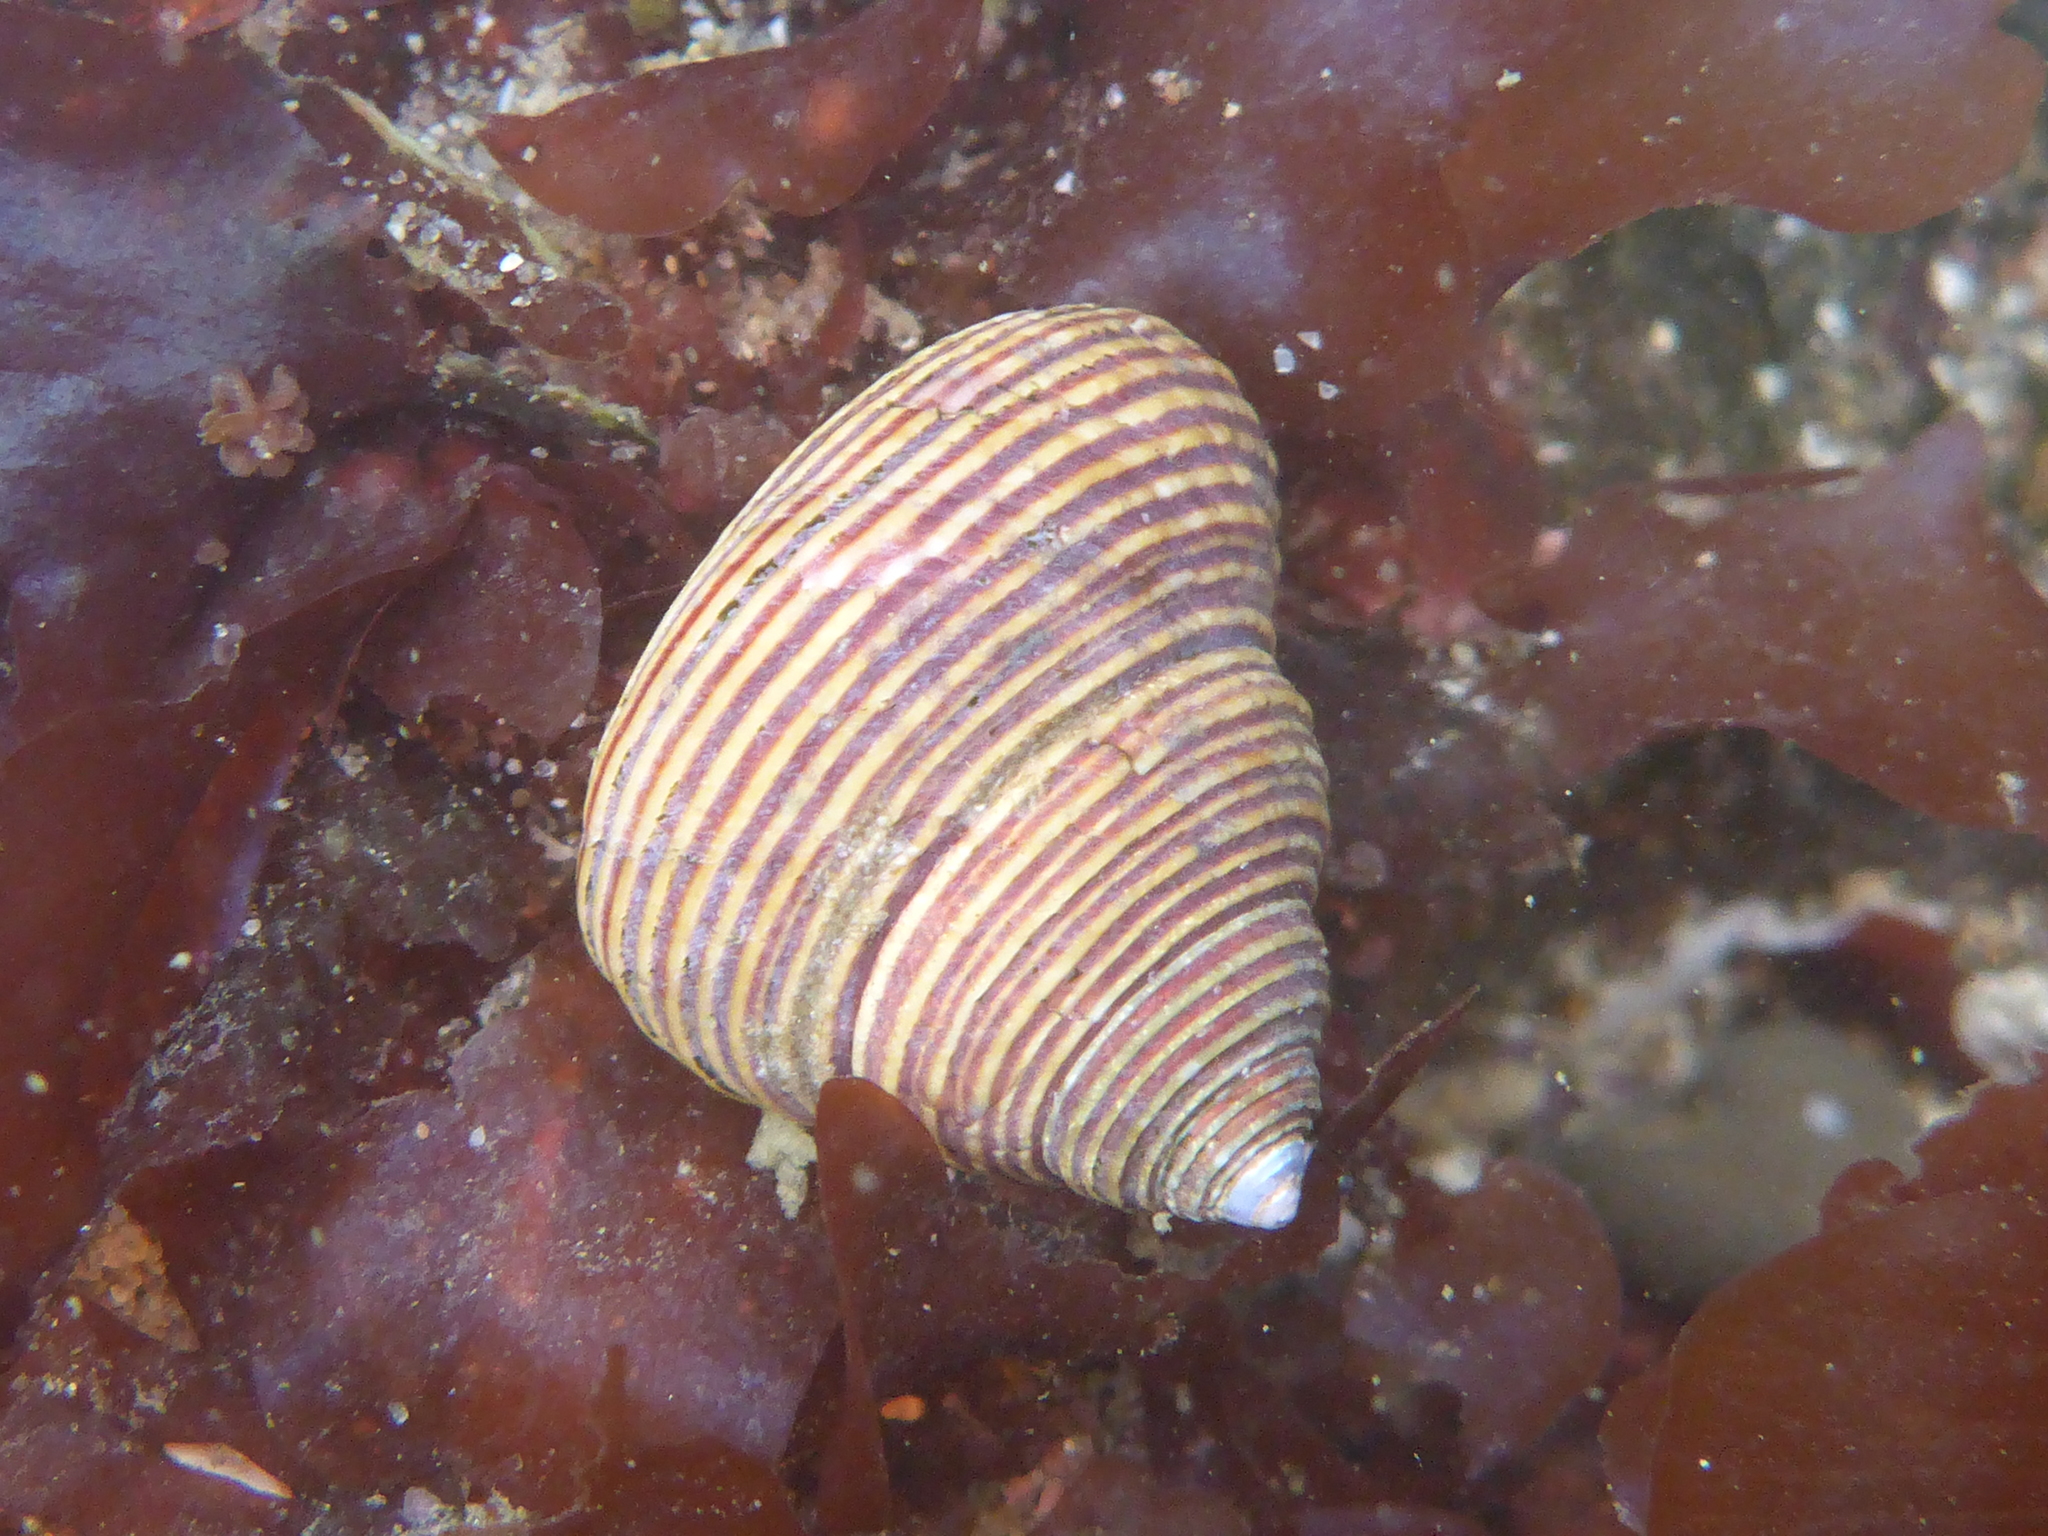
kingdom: Animalia
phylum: Mollusca
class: Gastropoda
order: Trochida
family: Calliostomatidae
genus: Calliostoma
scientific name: Calliostoma ligatum
